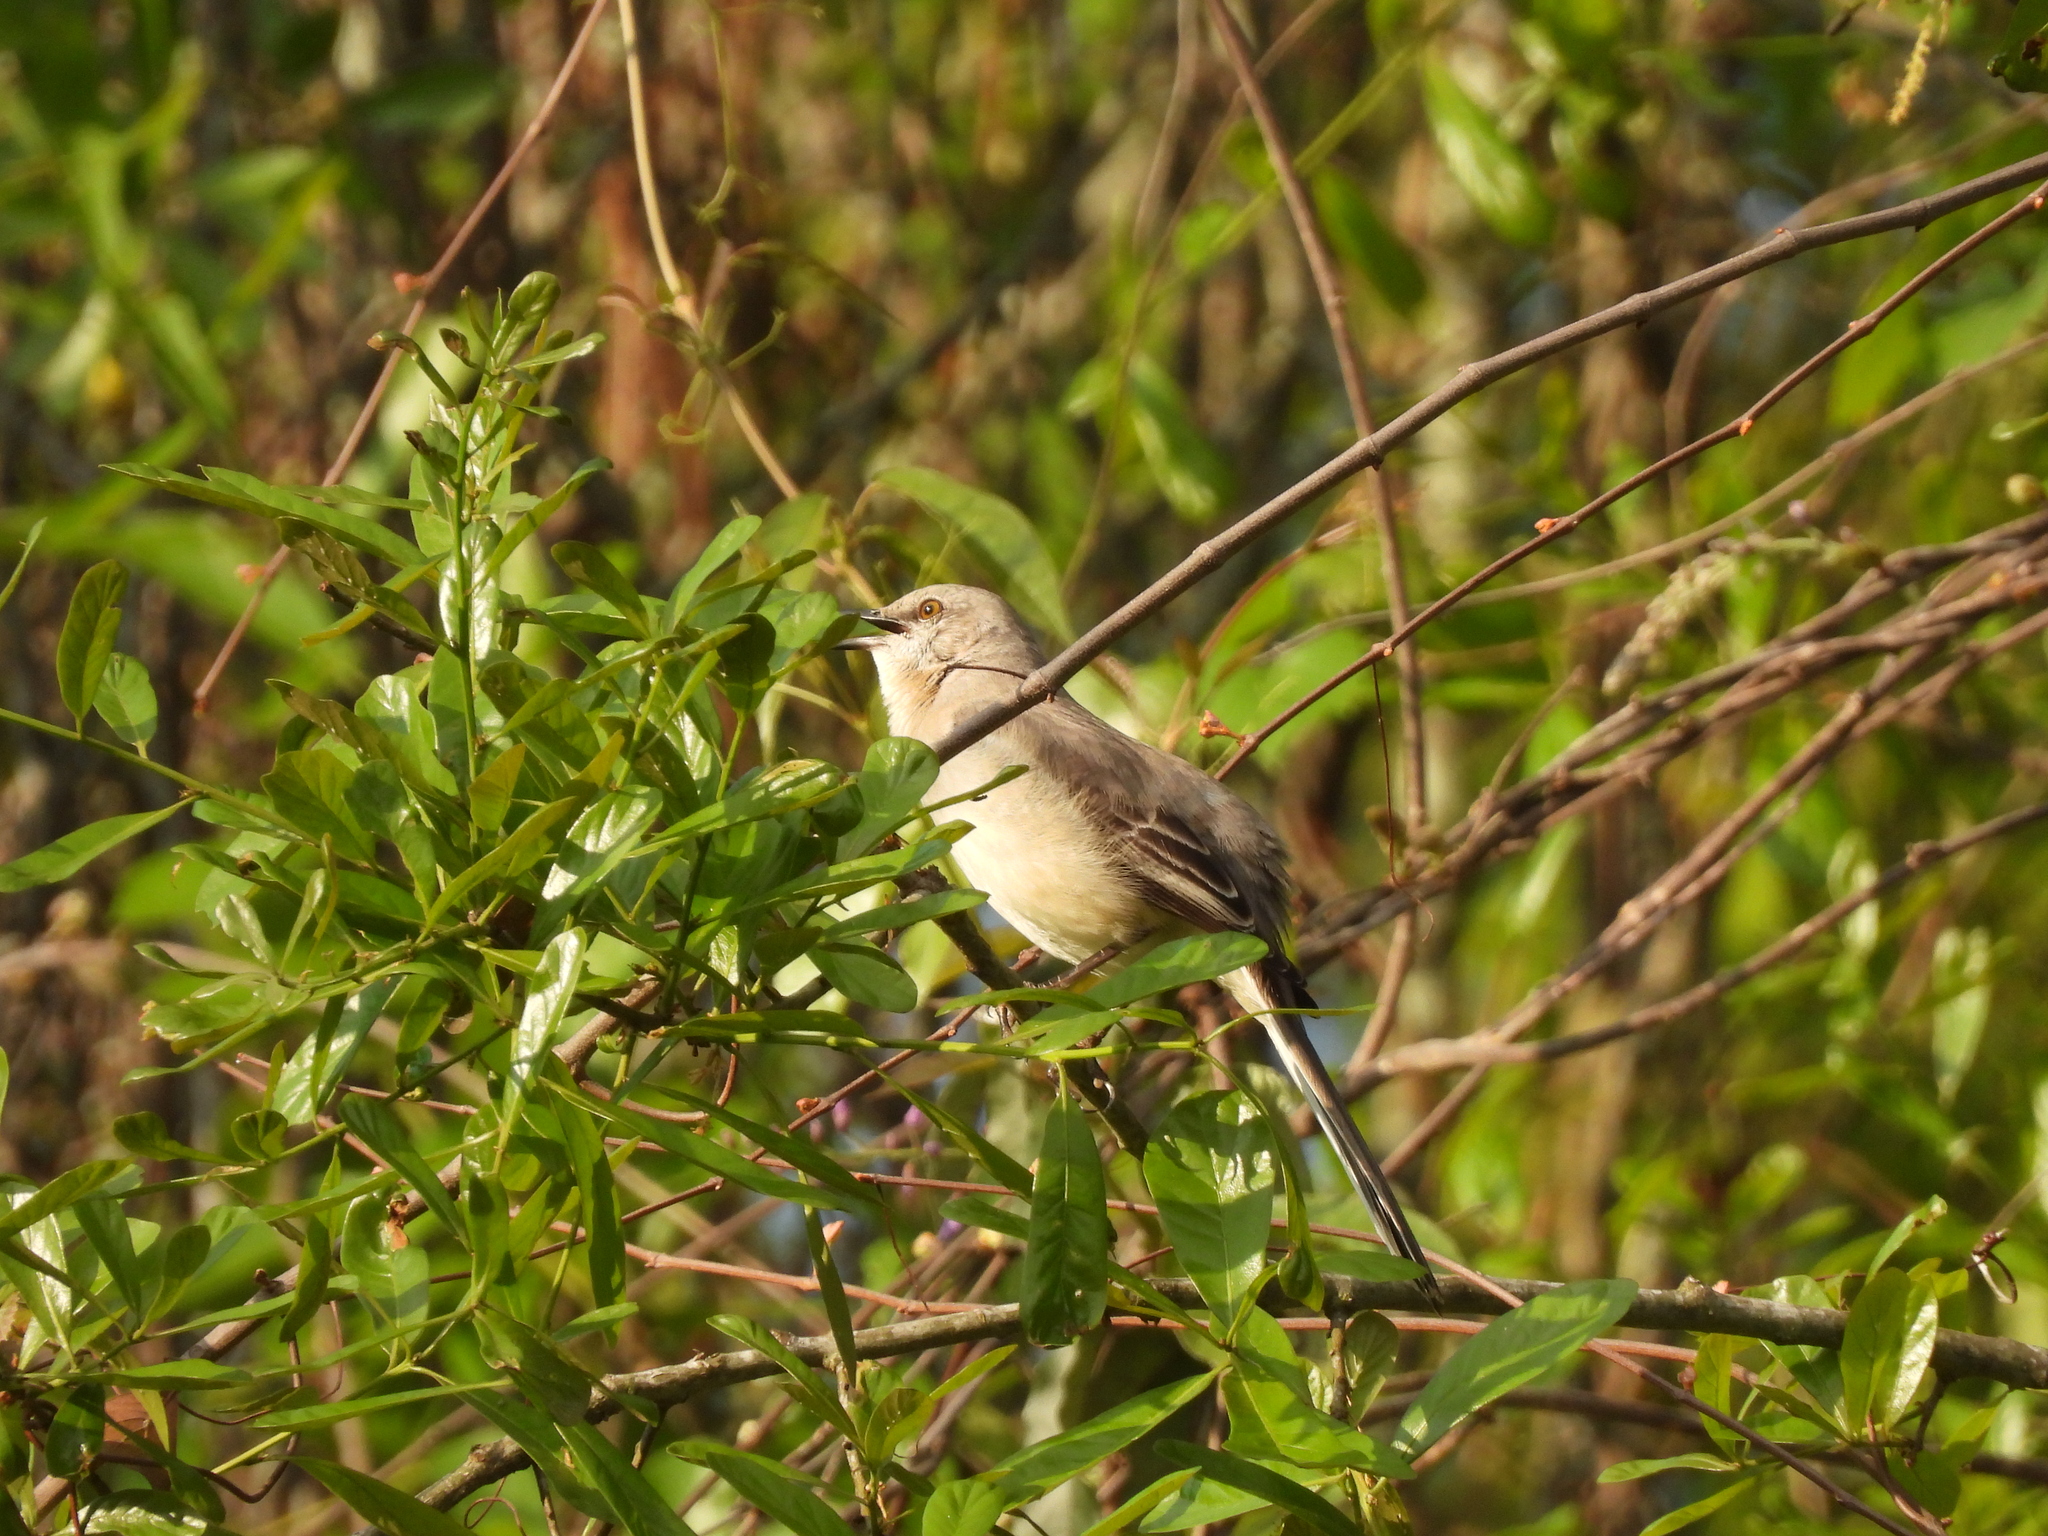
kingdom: Animalia
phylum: Chordata
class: Aves
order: Passeriformes
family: Mimidae
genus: Mimus
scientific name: Mimus polyglottos
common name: Northern mockingbird
